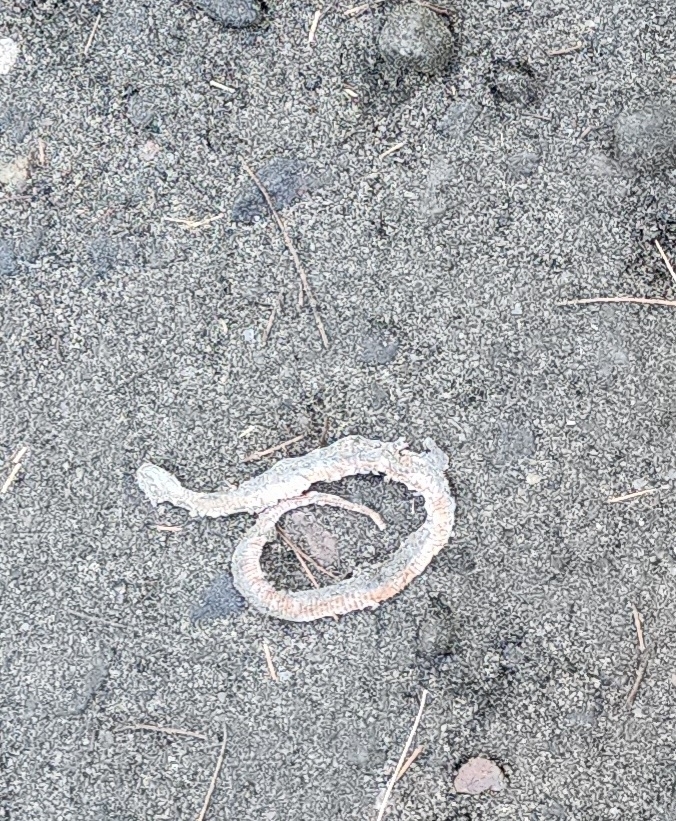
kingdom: Animalia
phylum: Chordata
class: Squamata
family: Colubridae
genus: Storeria
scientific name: Storeria occipitomaculata
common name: Redbelly snake
